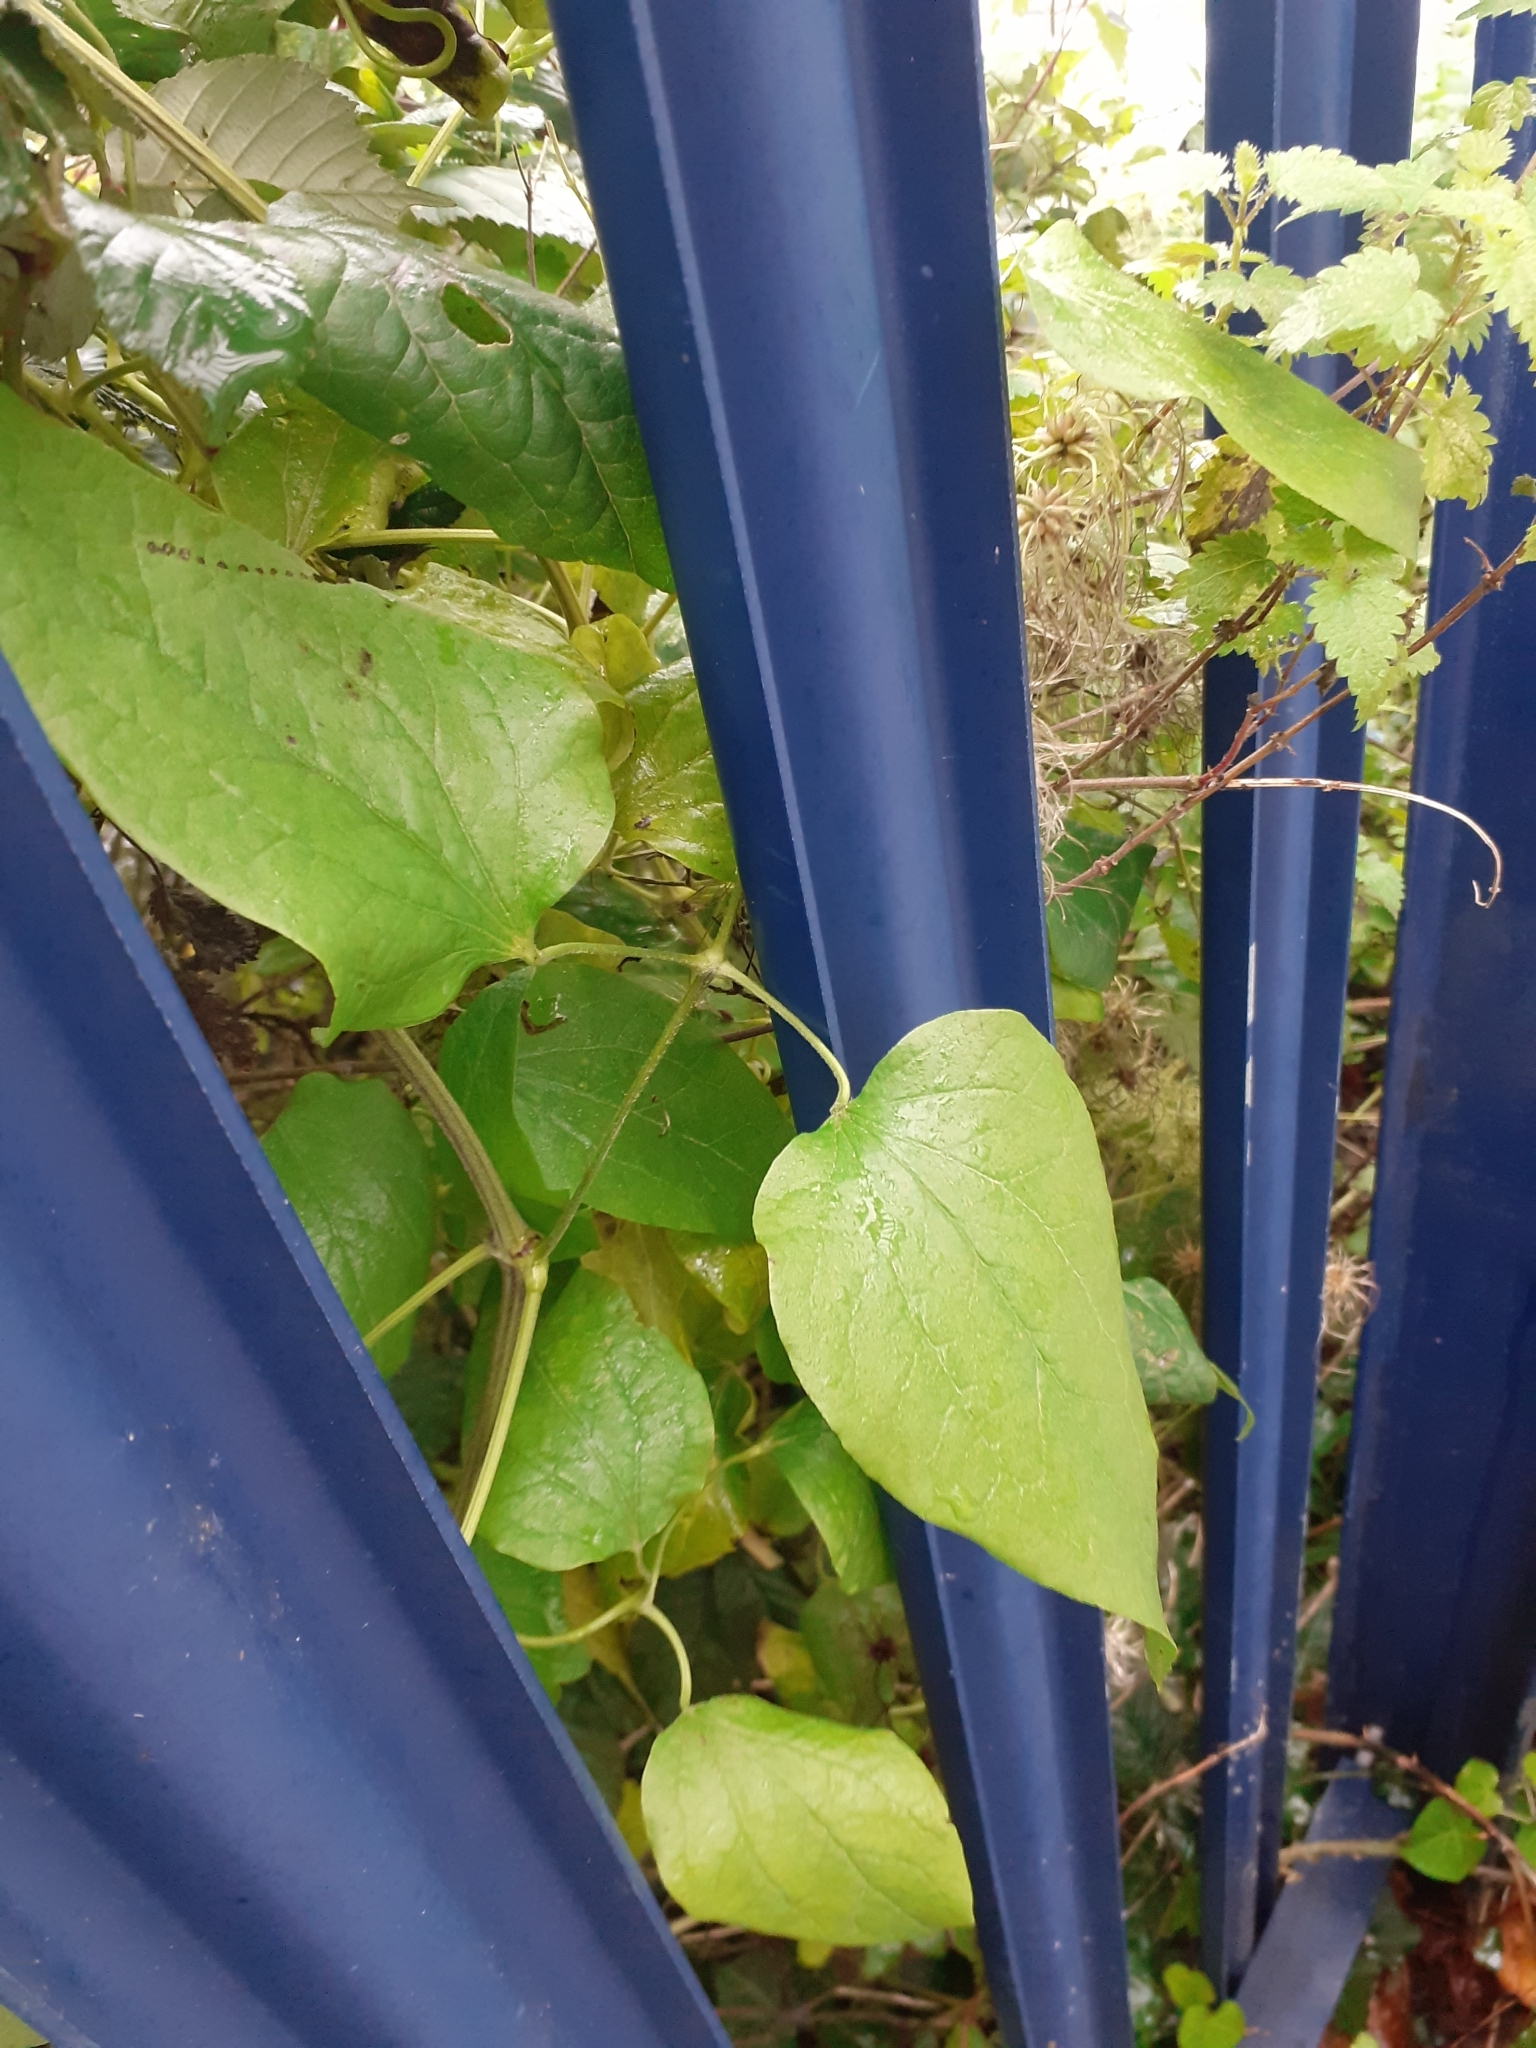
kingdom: Plantae
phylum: Tracheophyta
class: Magnoliopsida
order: Ranunculales
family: Ranunculaceae
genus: Clematis
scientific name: Clematis vitalba
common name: Evergreen clematis
